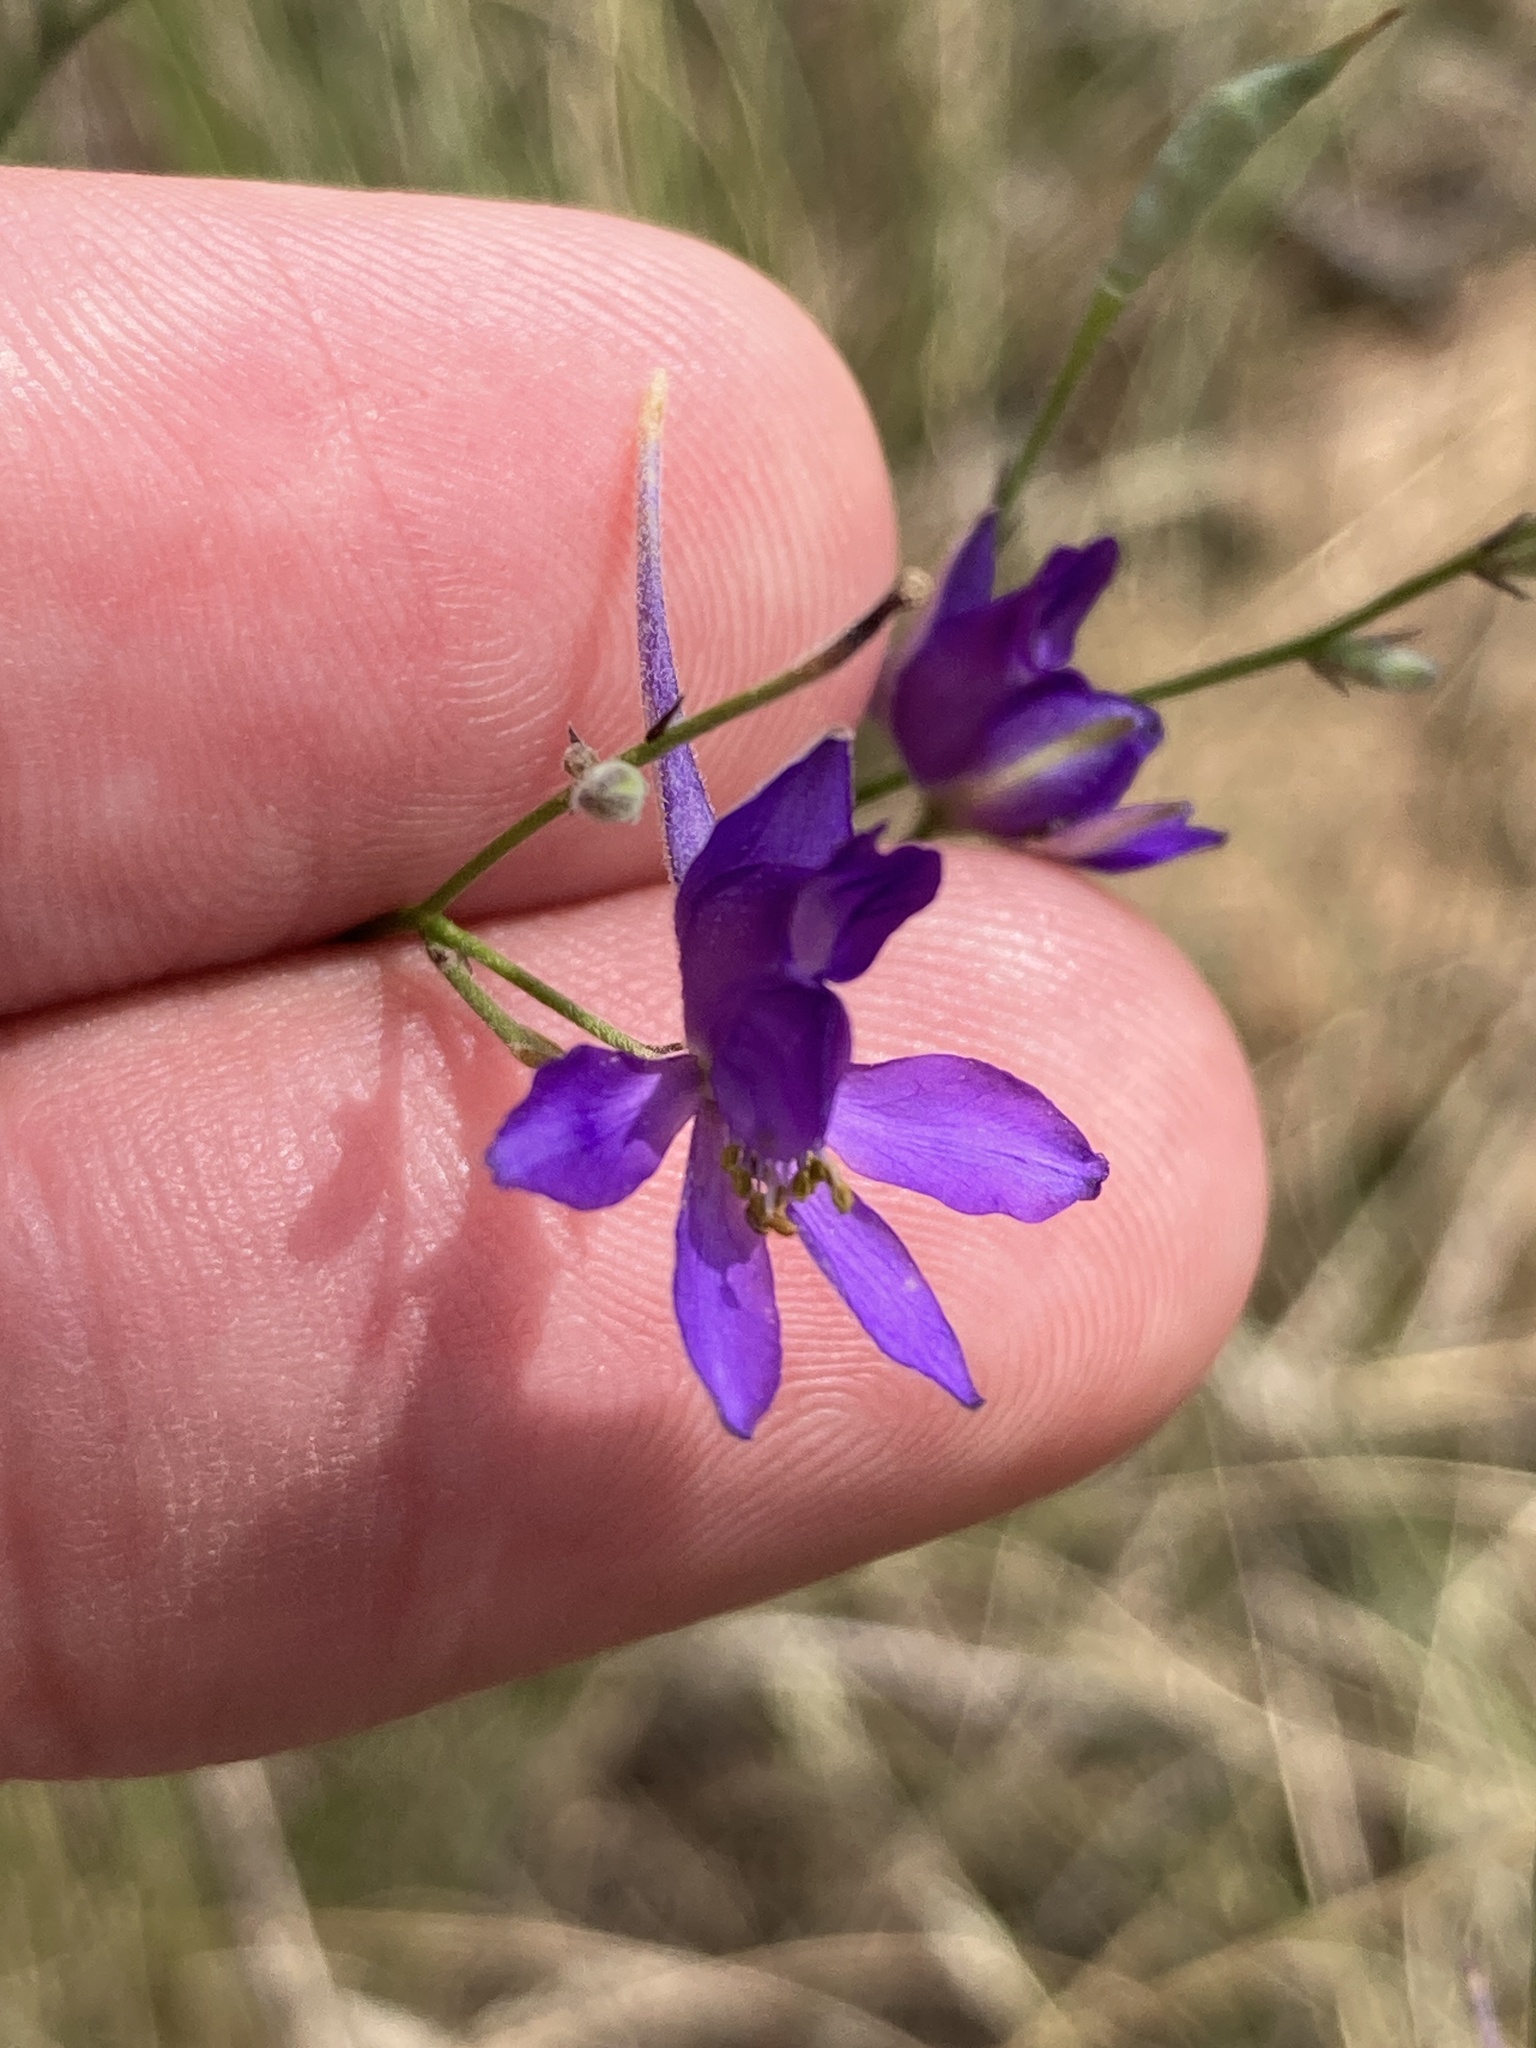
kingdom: Plantae
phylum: Tracheophyta
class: Magnoliopsida
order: Ranunculales
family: Ranunculaceae
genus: Delphinium
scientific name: Delphinium consolida
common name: Branching larkspur
